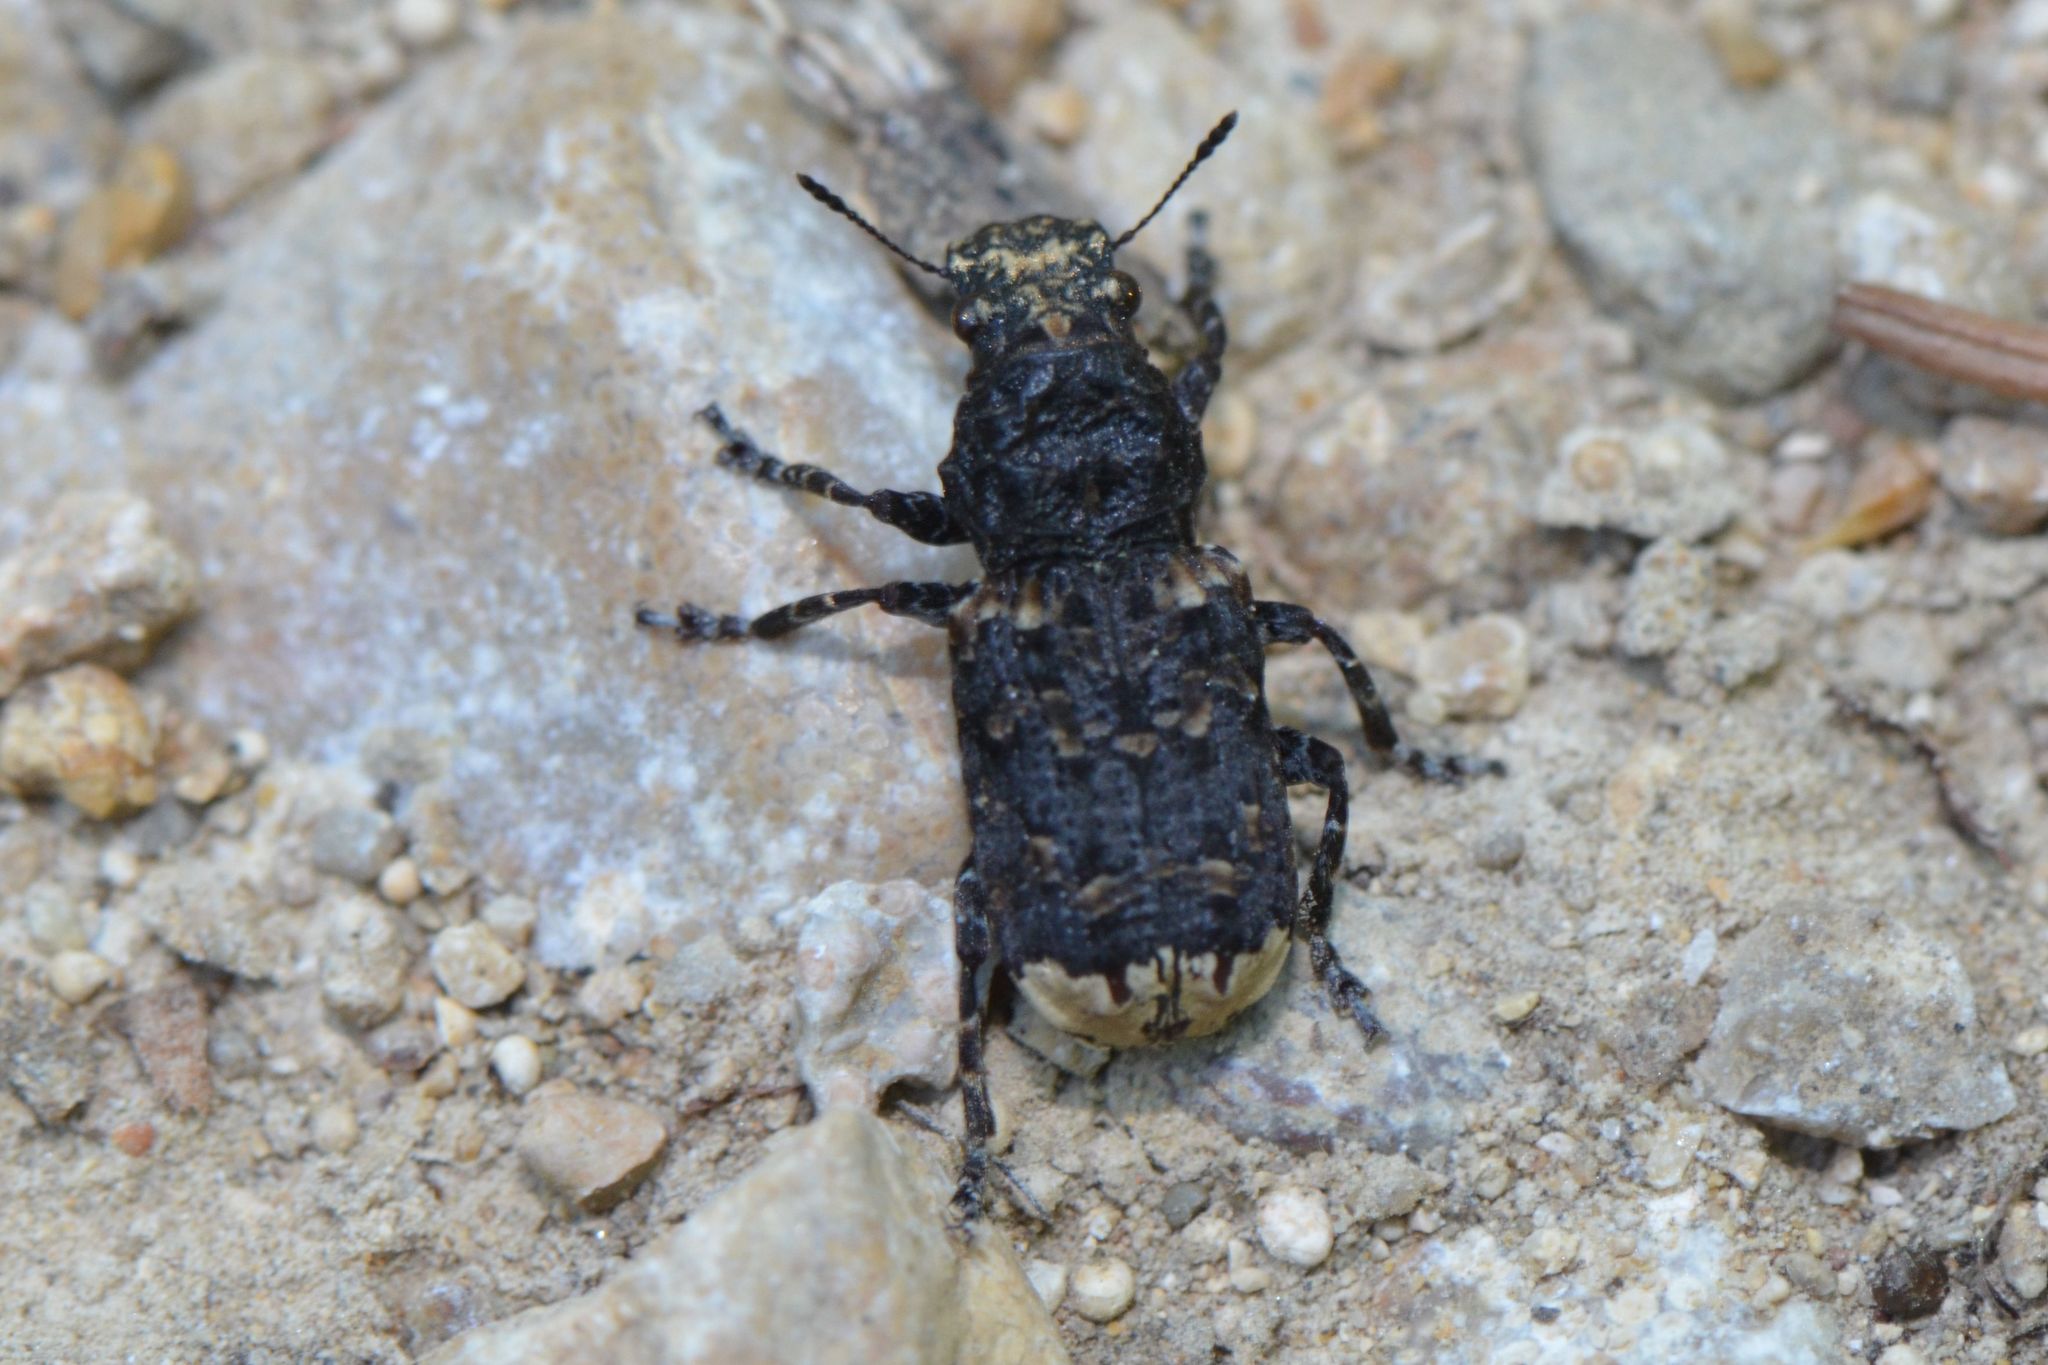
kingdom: Animalia
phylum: Arthropoda
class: Insecta
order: Coleoptera
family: Anthribidae
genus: Platyrhinus
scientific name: Platyrhinus resinosus
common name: Cramp-ball fungus weevil
